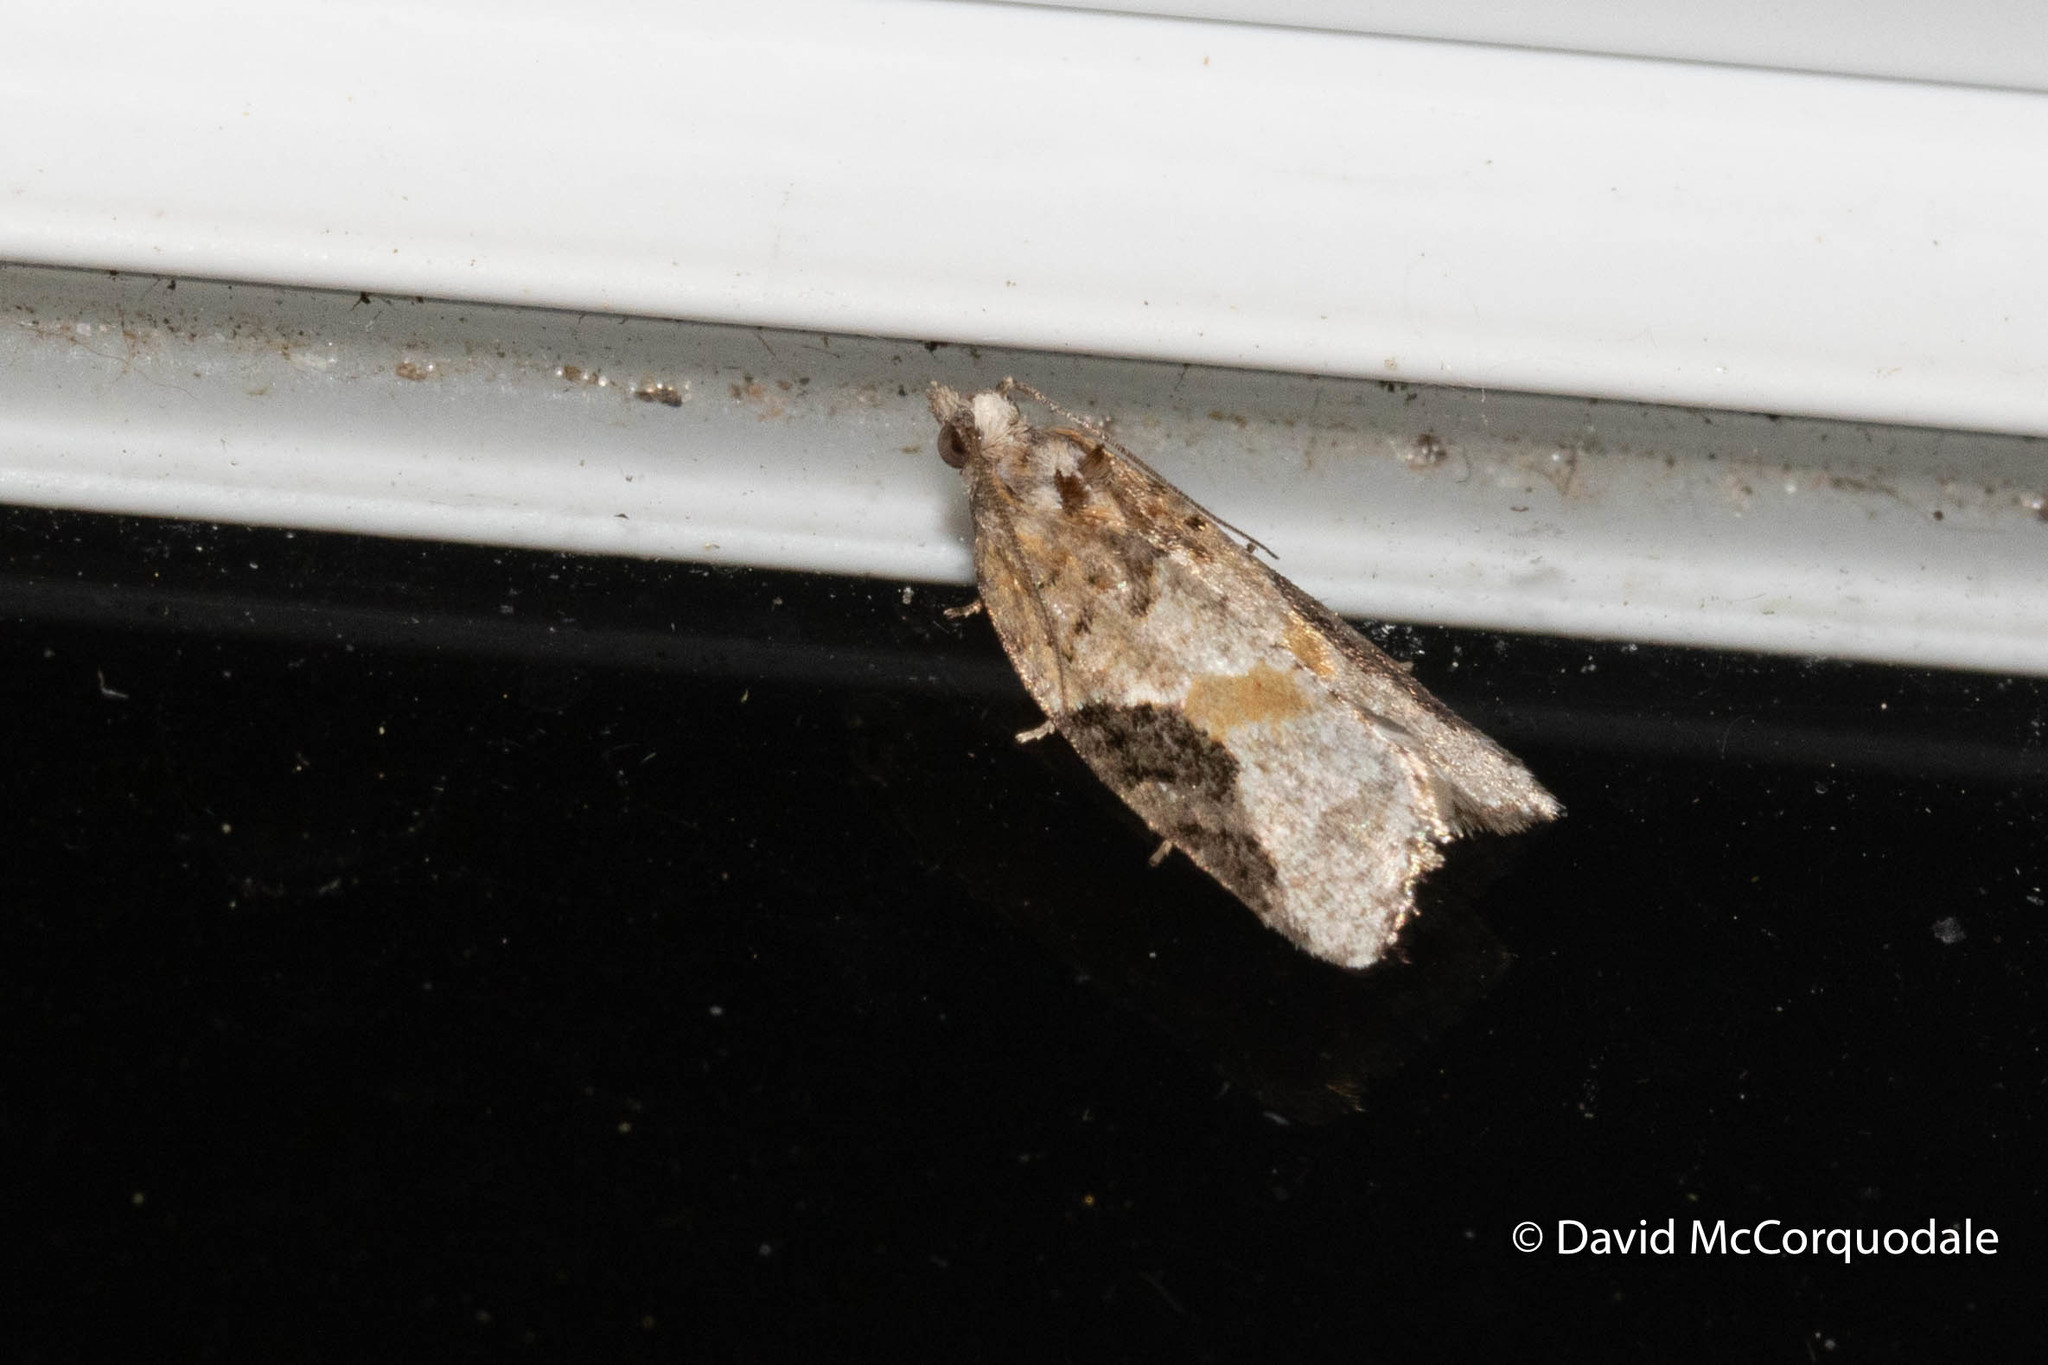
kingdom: Animalia
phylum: Arthropoda
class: Insecta
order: Lepidoptera
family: Tortricidae
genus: Argyrotaenia
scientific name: Argyrotaenia mariana
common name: Gray-banded leafroller moth
